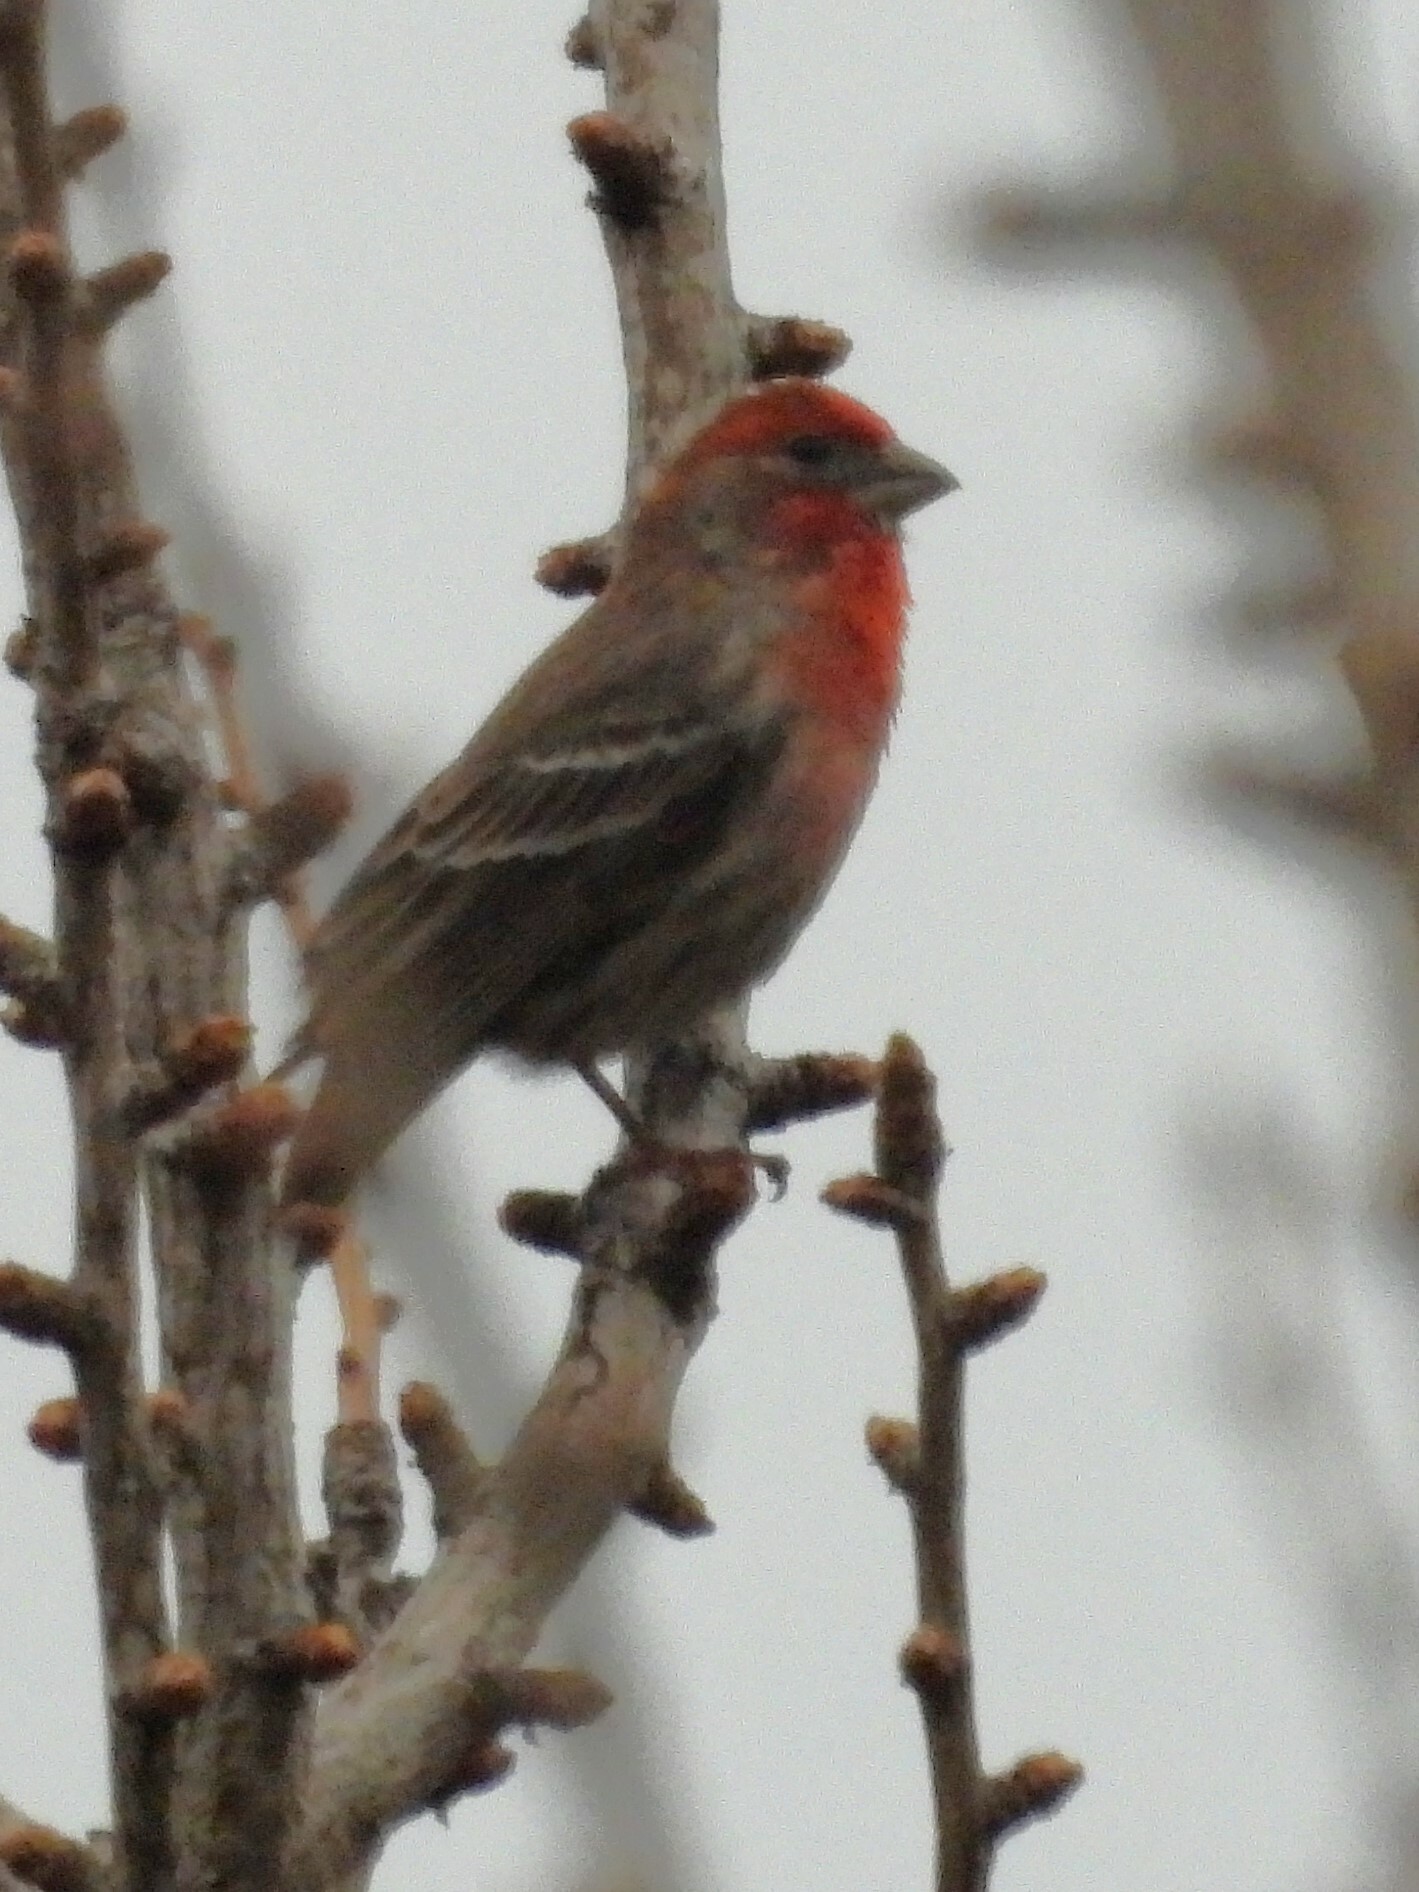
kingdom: Animalia
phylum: Chordata
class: Aves
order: Passeriformes
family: Fringillidae
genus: Haemorhous
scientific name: Haemorhous mexicanus
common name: House finch
